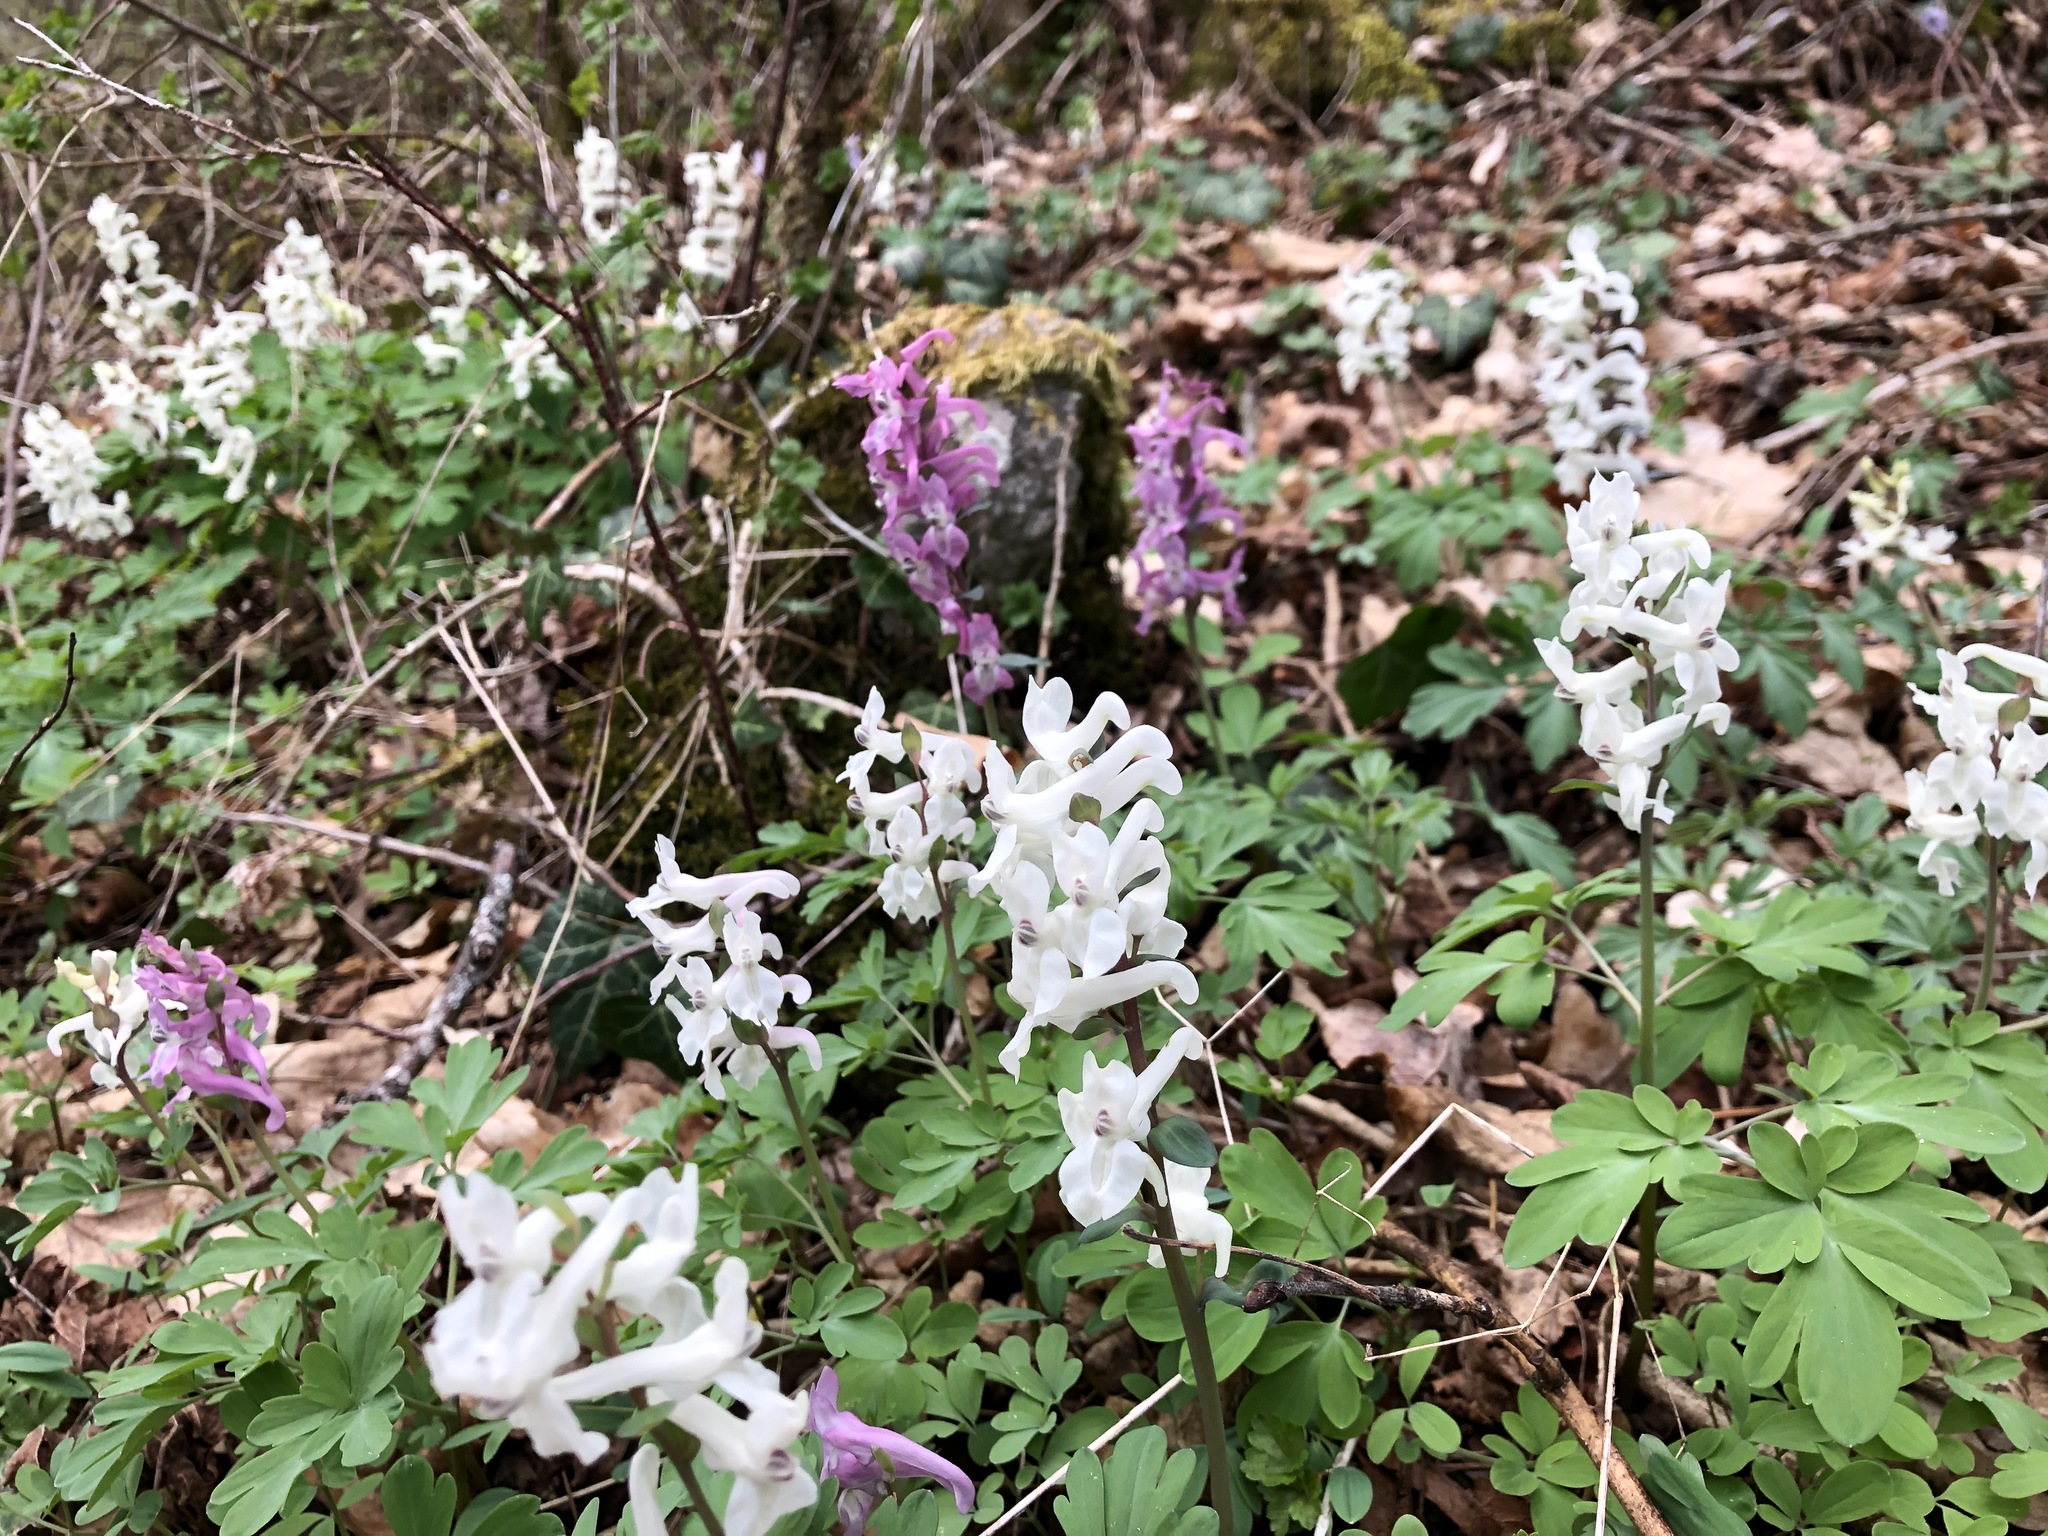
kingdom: Plantae
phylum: Tracheophyta
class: Magnoliopsida
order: Ranunculales
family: Papaveraceae
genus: Corydalis
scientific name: Corydalis cava
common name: Hollowroot
